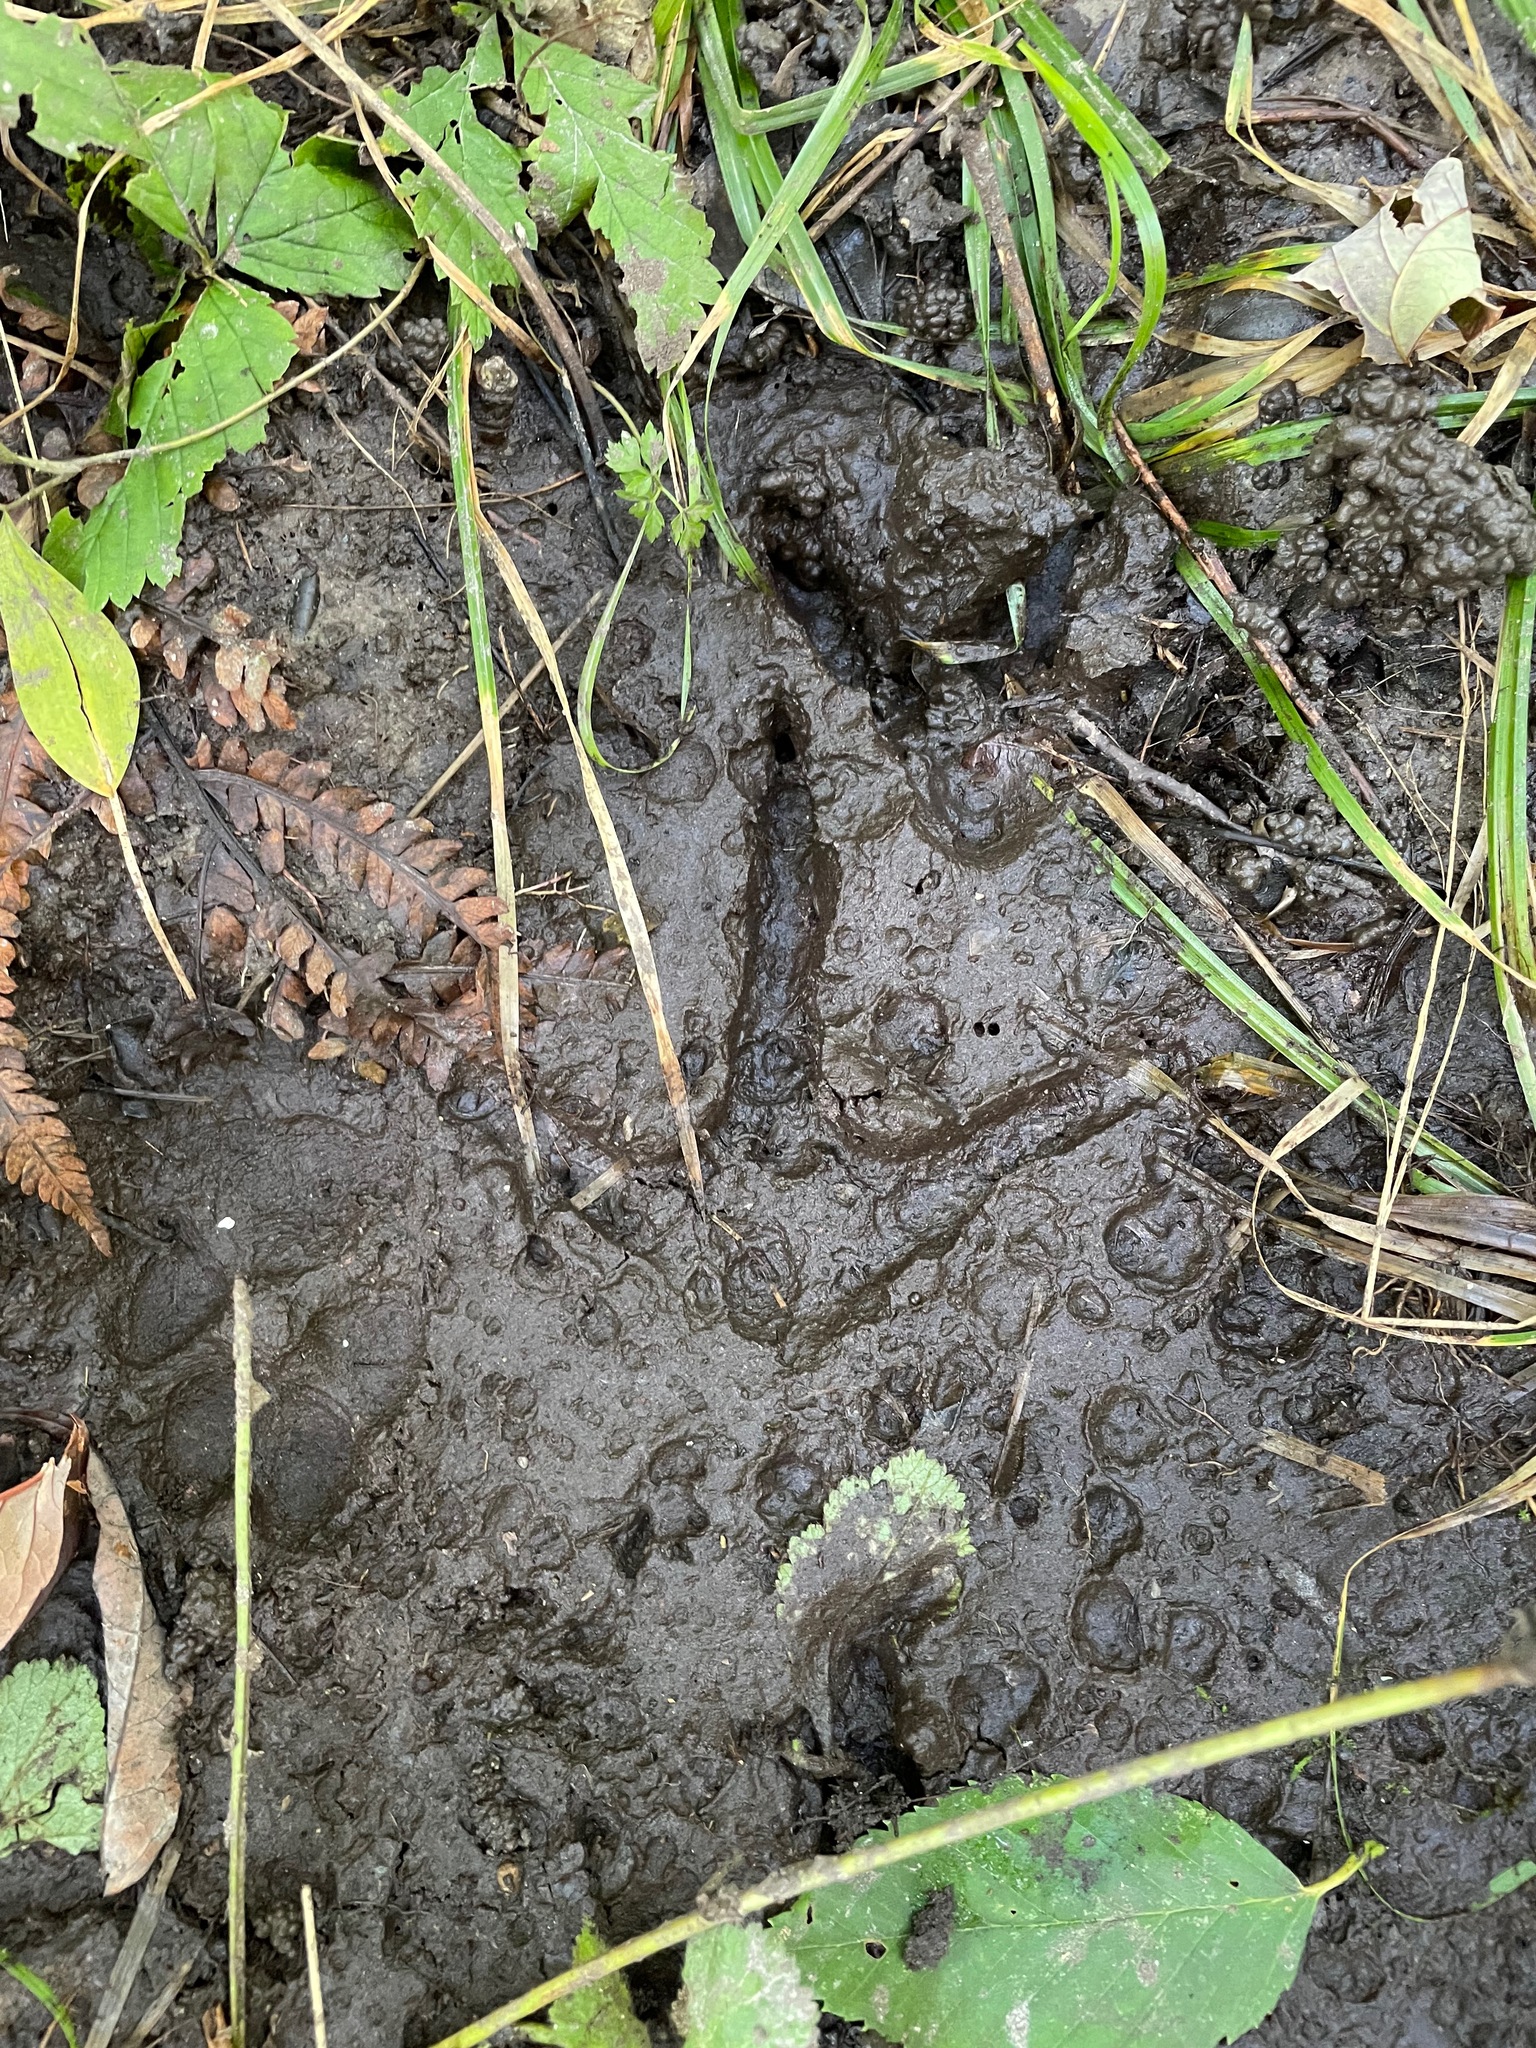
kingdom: Animalia
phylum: Chordata
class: Aves
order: Galliformes
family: Phasianidae
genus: Meleagris
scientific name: Meleagris gallopavo
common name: Wild turkey
